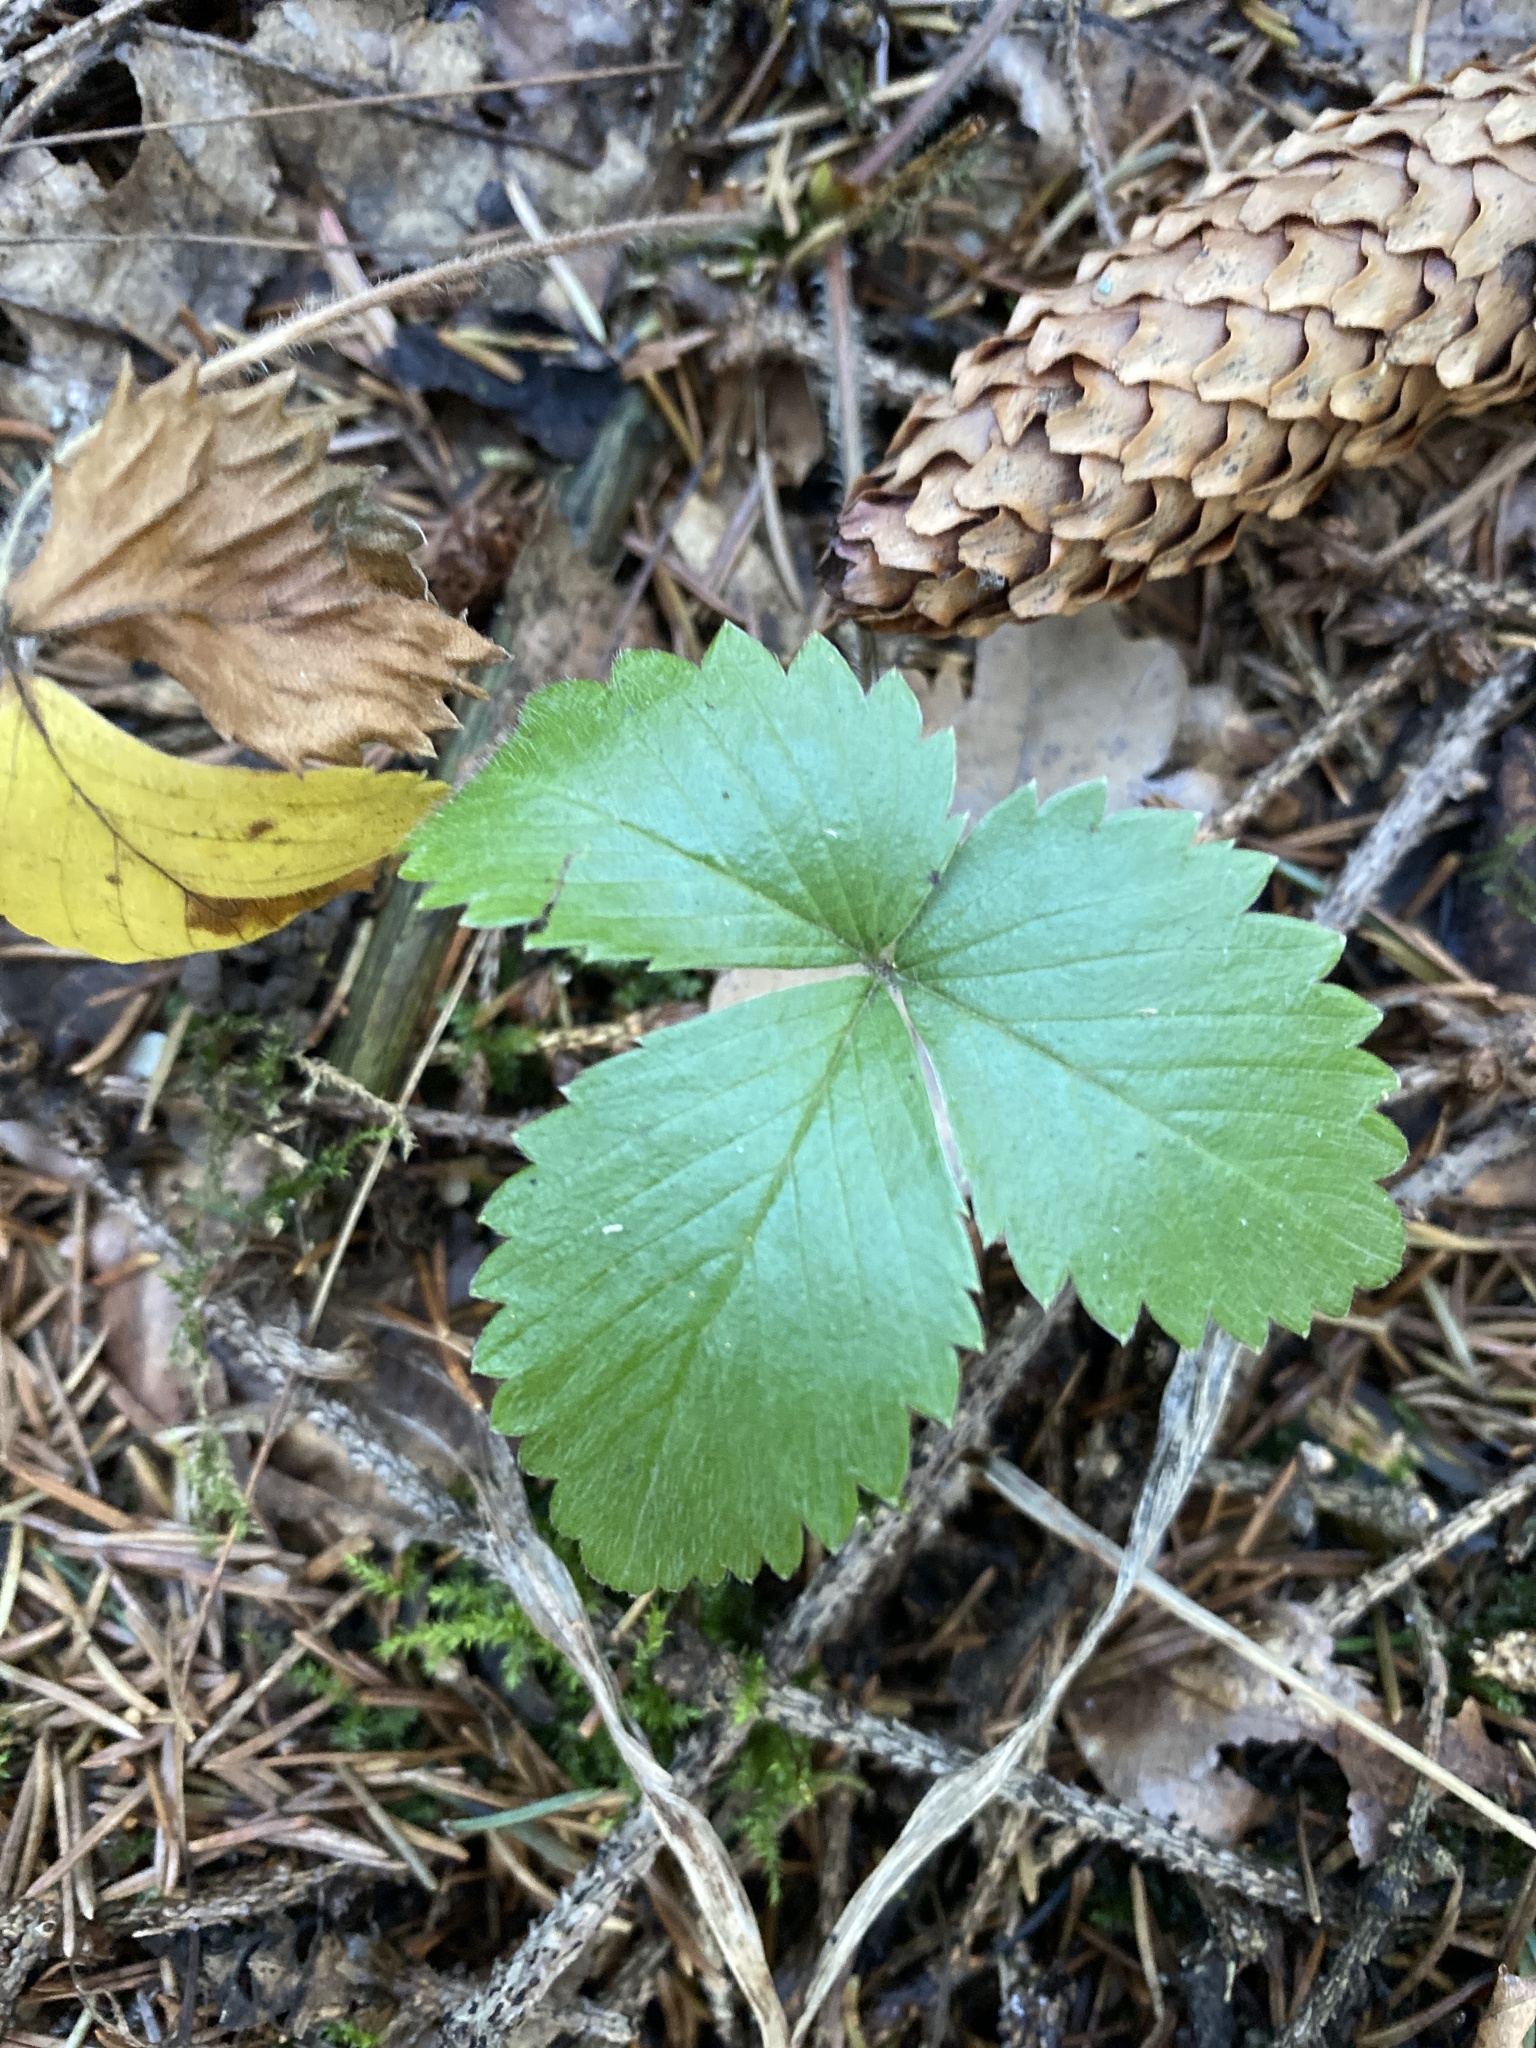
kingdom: Plantae
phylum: Tracheophyta
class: Magnoliopsida
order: Rosales
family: Rosaceae
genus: Fragaria
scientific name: Fragaria vesca
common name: Wild strawberry
